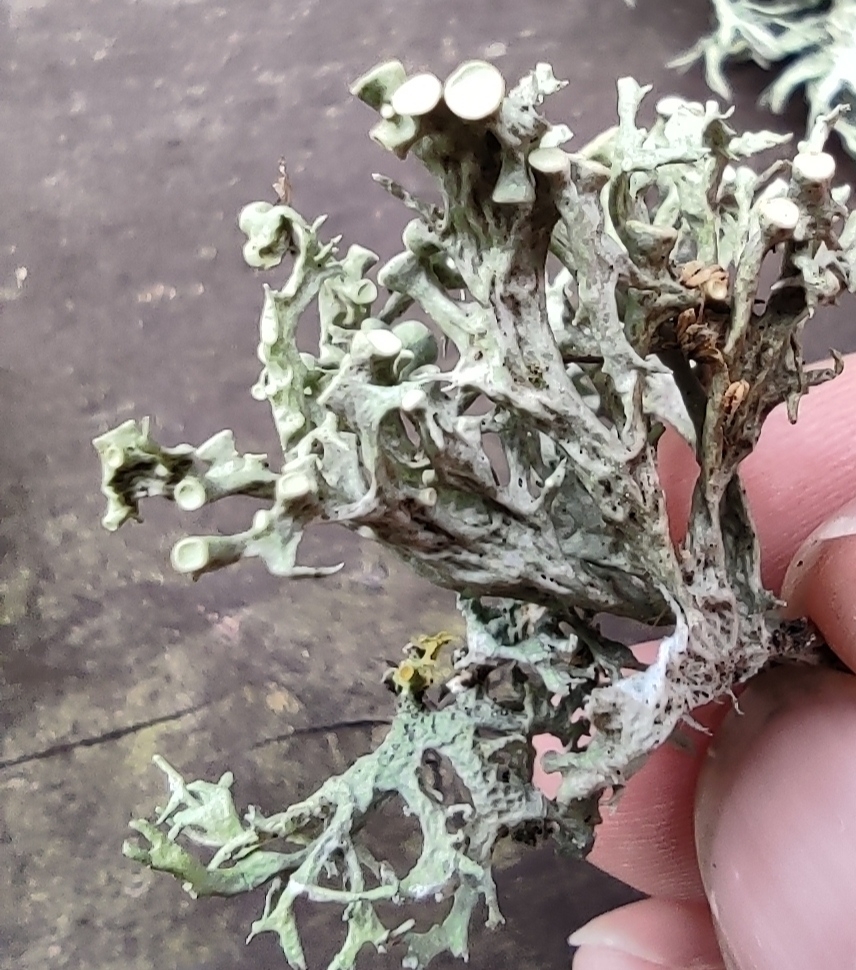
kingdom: Fungi
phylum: Ascomycota
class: Lecanoromycetes
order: Lecanorales
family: Ramalinaceae
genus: Ramalina
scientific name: Ramalina fastigiata
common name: Dotted ribbon lichen
